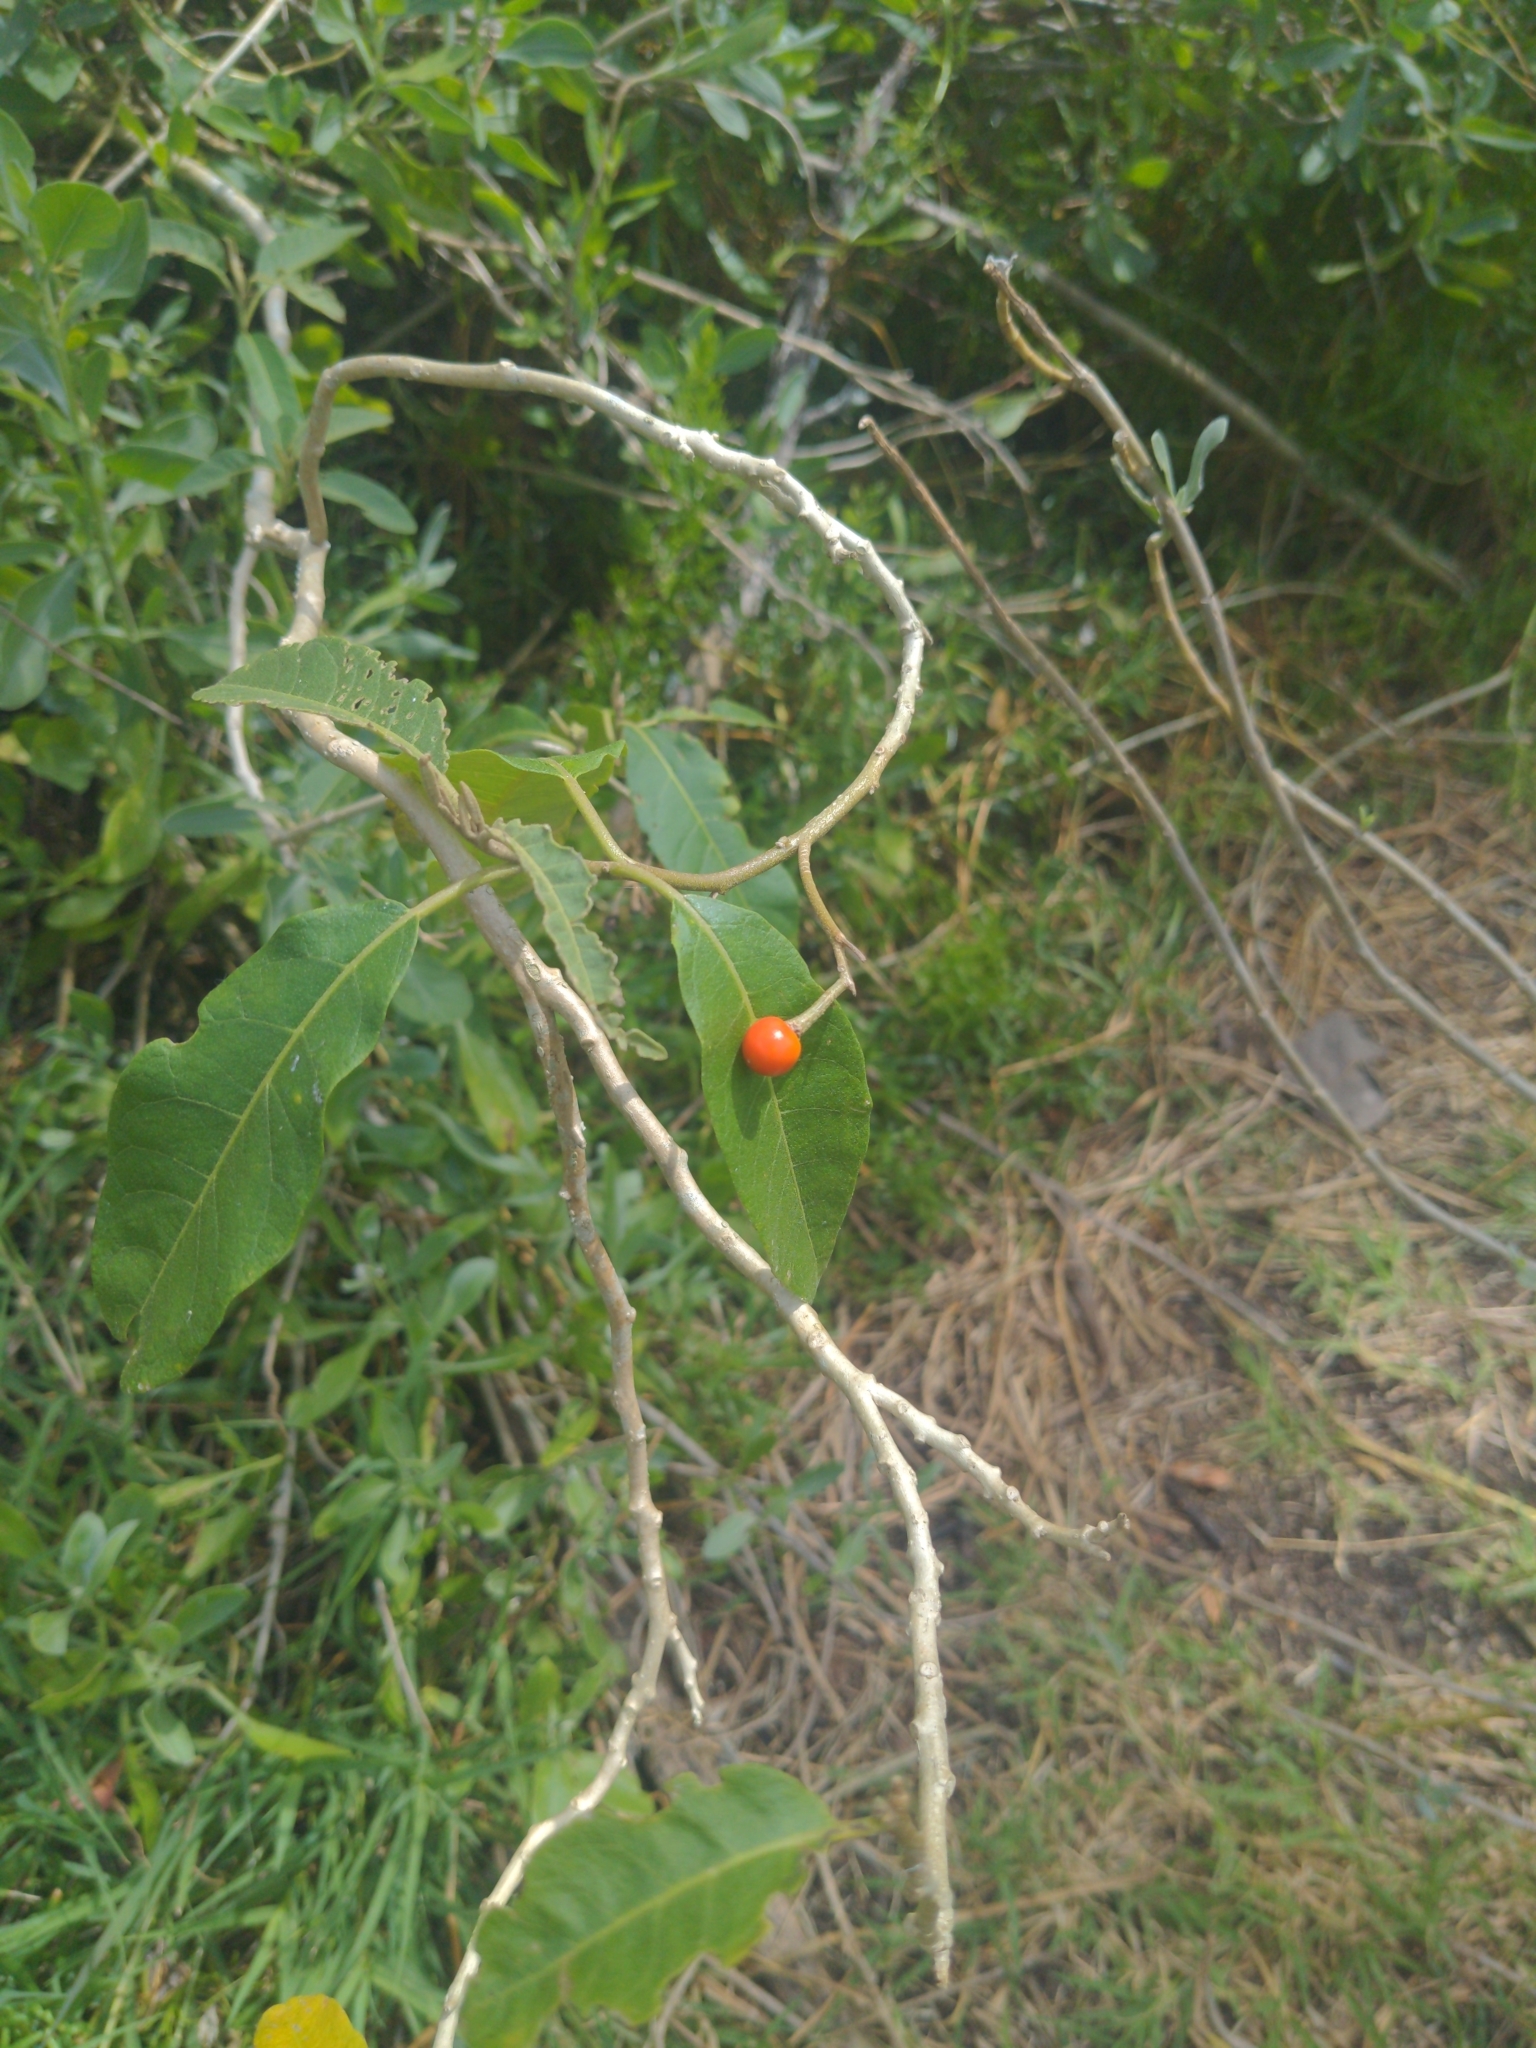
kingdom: Plantae
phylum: Tracheophyta
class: Magnoliopsida
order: Solanales
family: Solanaceae
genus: Solanum
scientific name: Solanum donianum
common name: Mullein nightshade
